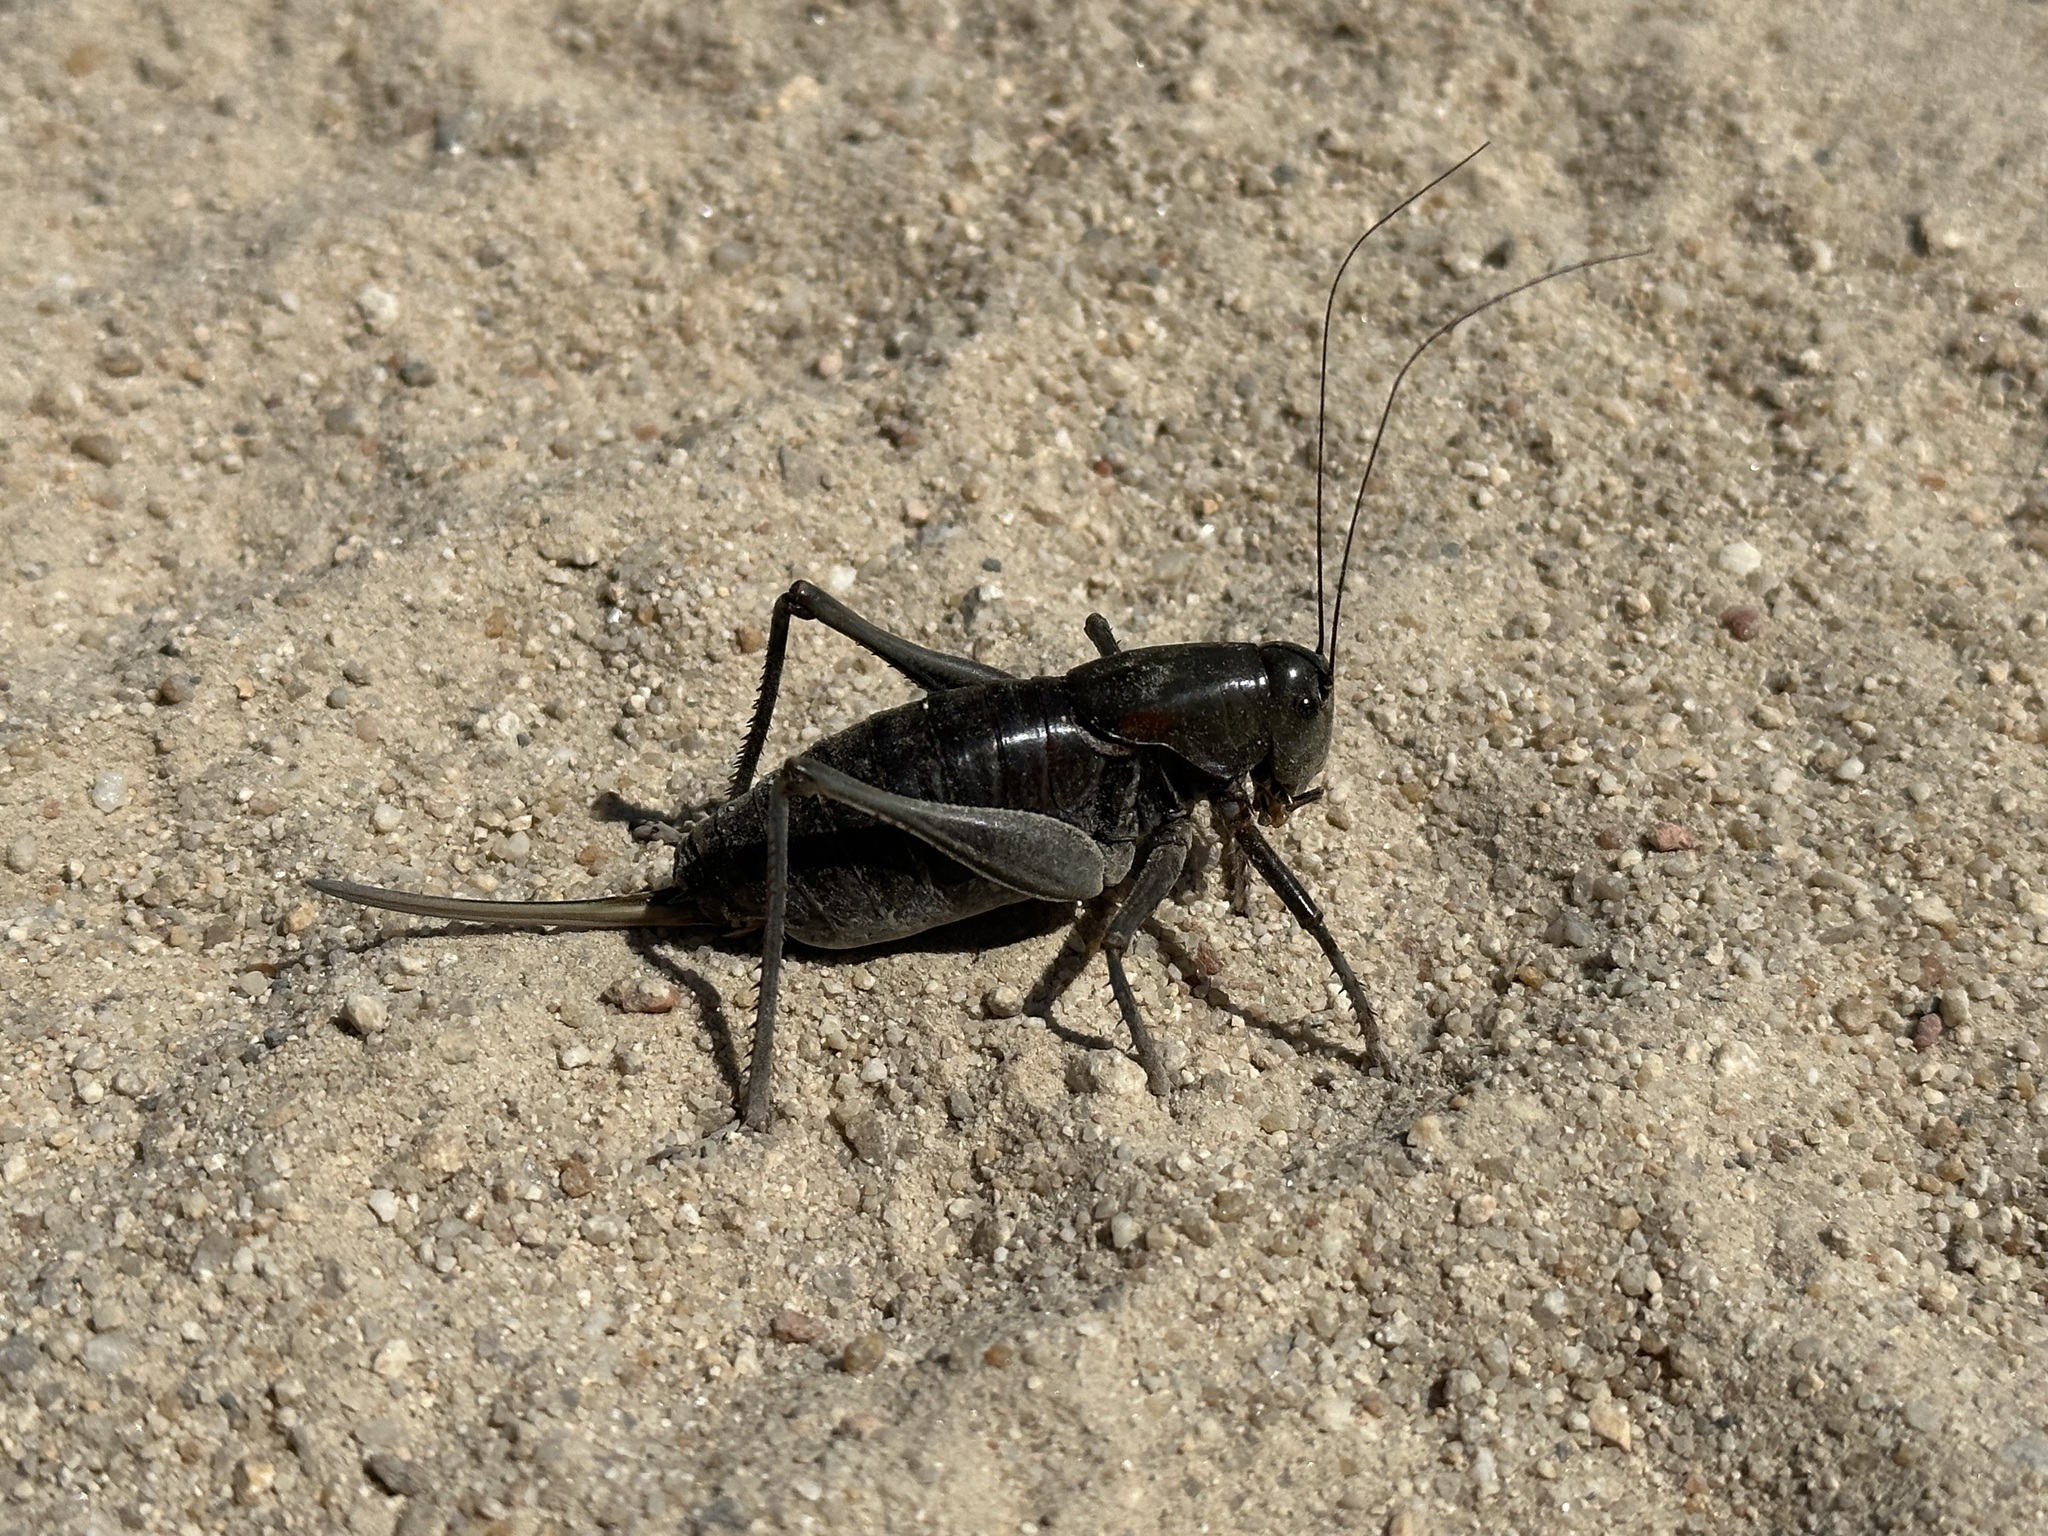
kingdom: Animalia
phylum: Arthropoda
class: Insecta
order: Orthoptera
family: Tettigoniidae
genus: Anabrus
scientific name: Anabrus simplex
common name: Mormon cricket
